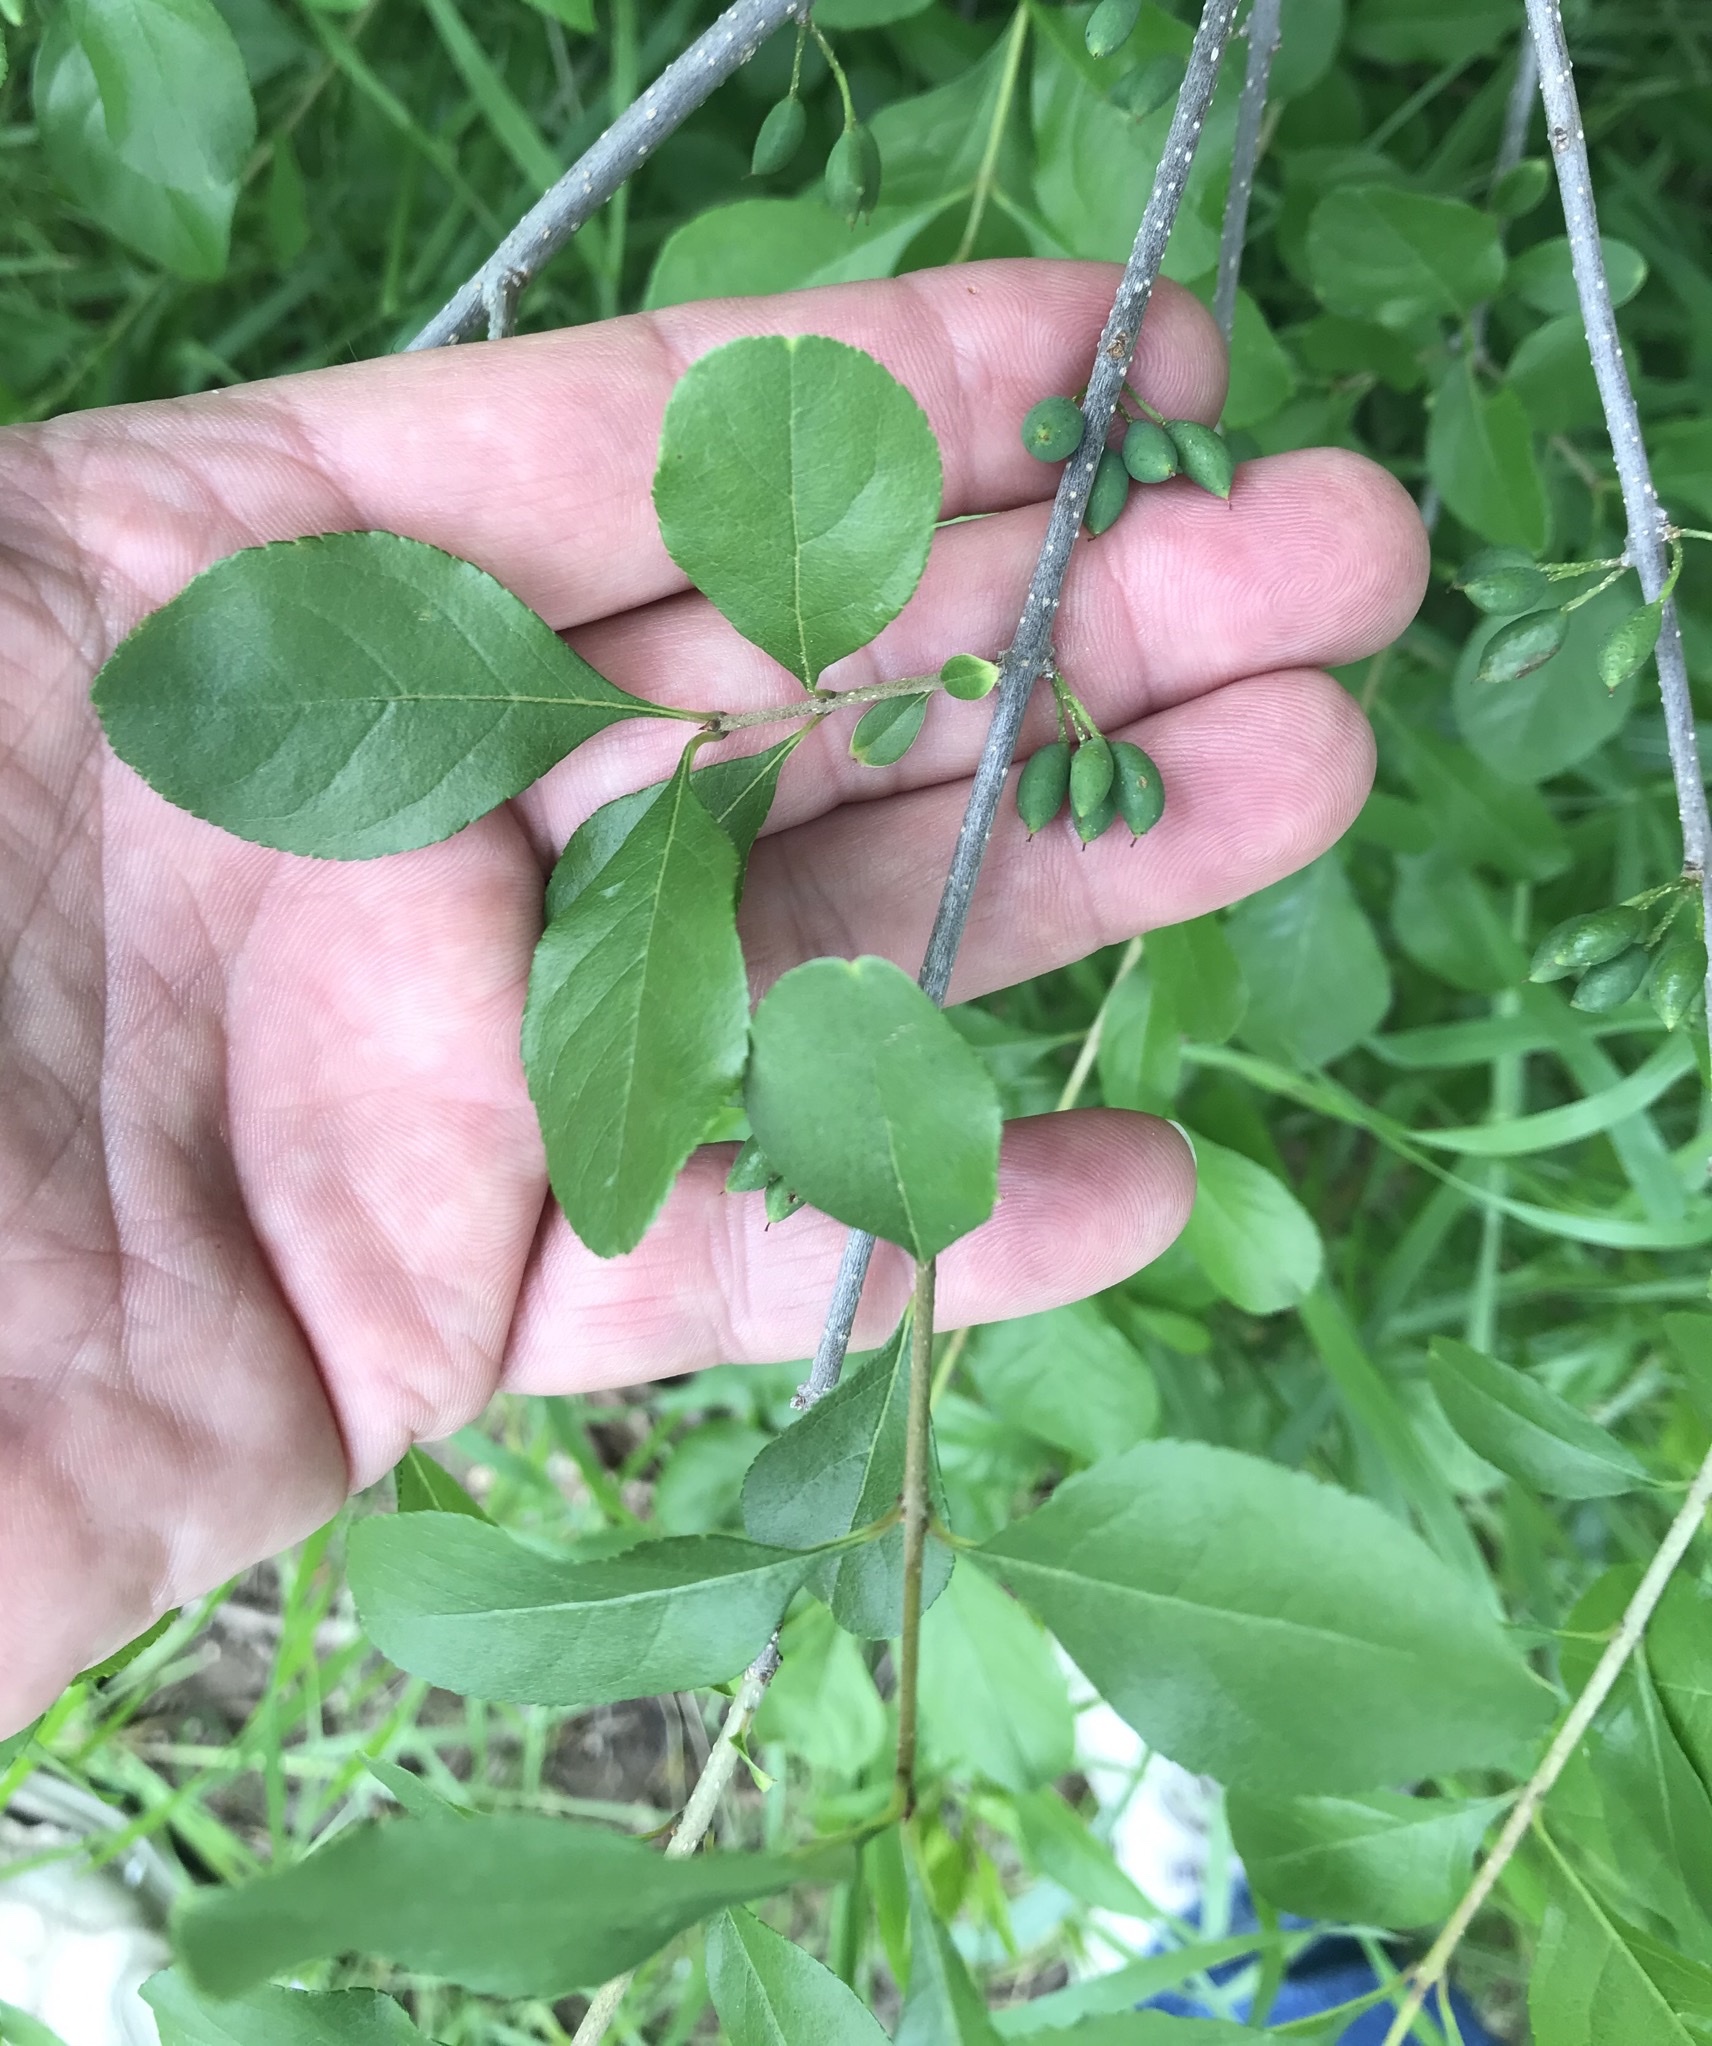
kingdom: Plantae
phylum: Tracheophyta
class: Magnoliopsida
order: Lamiales
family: Oleaceae
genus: Forestiera
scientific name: Forestiera pubescens
